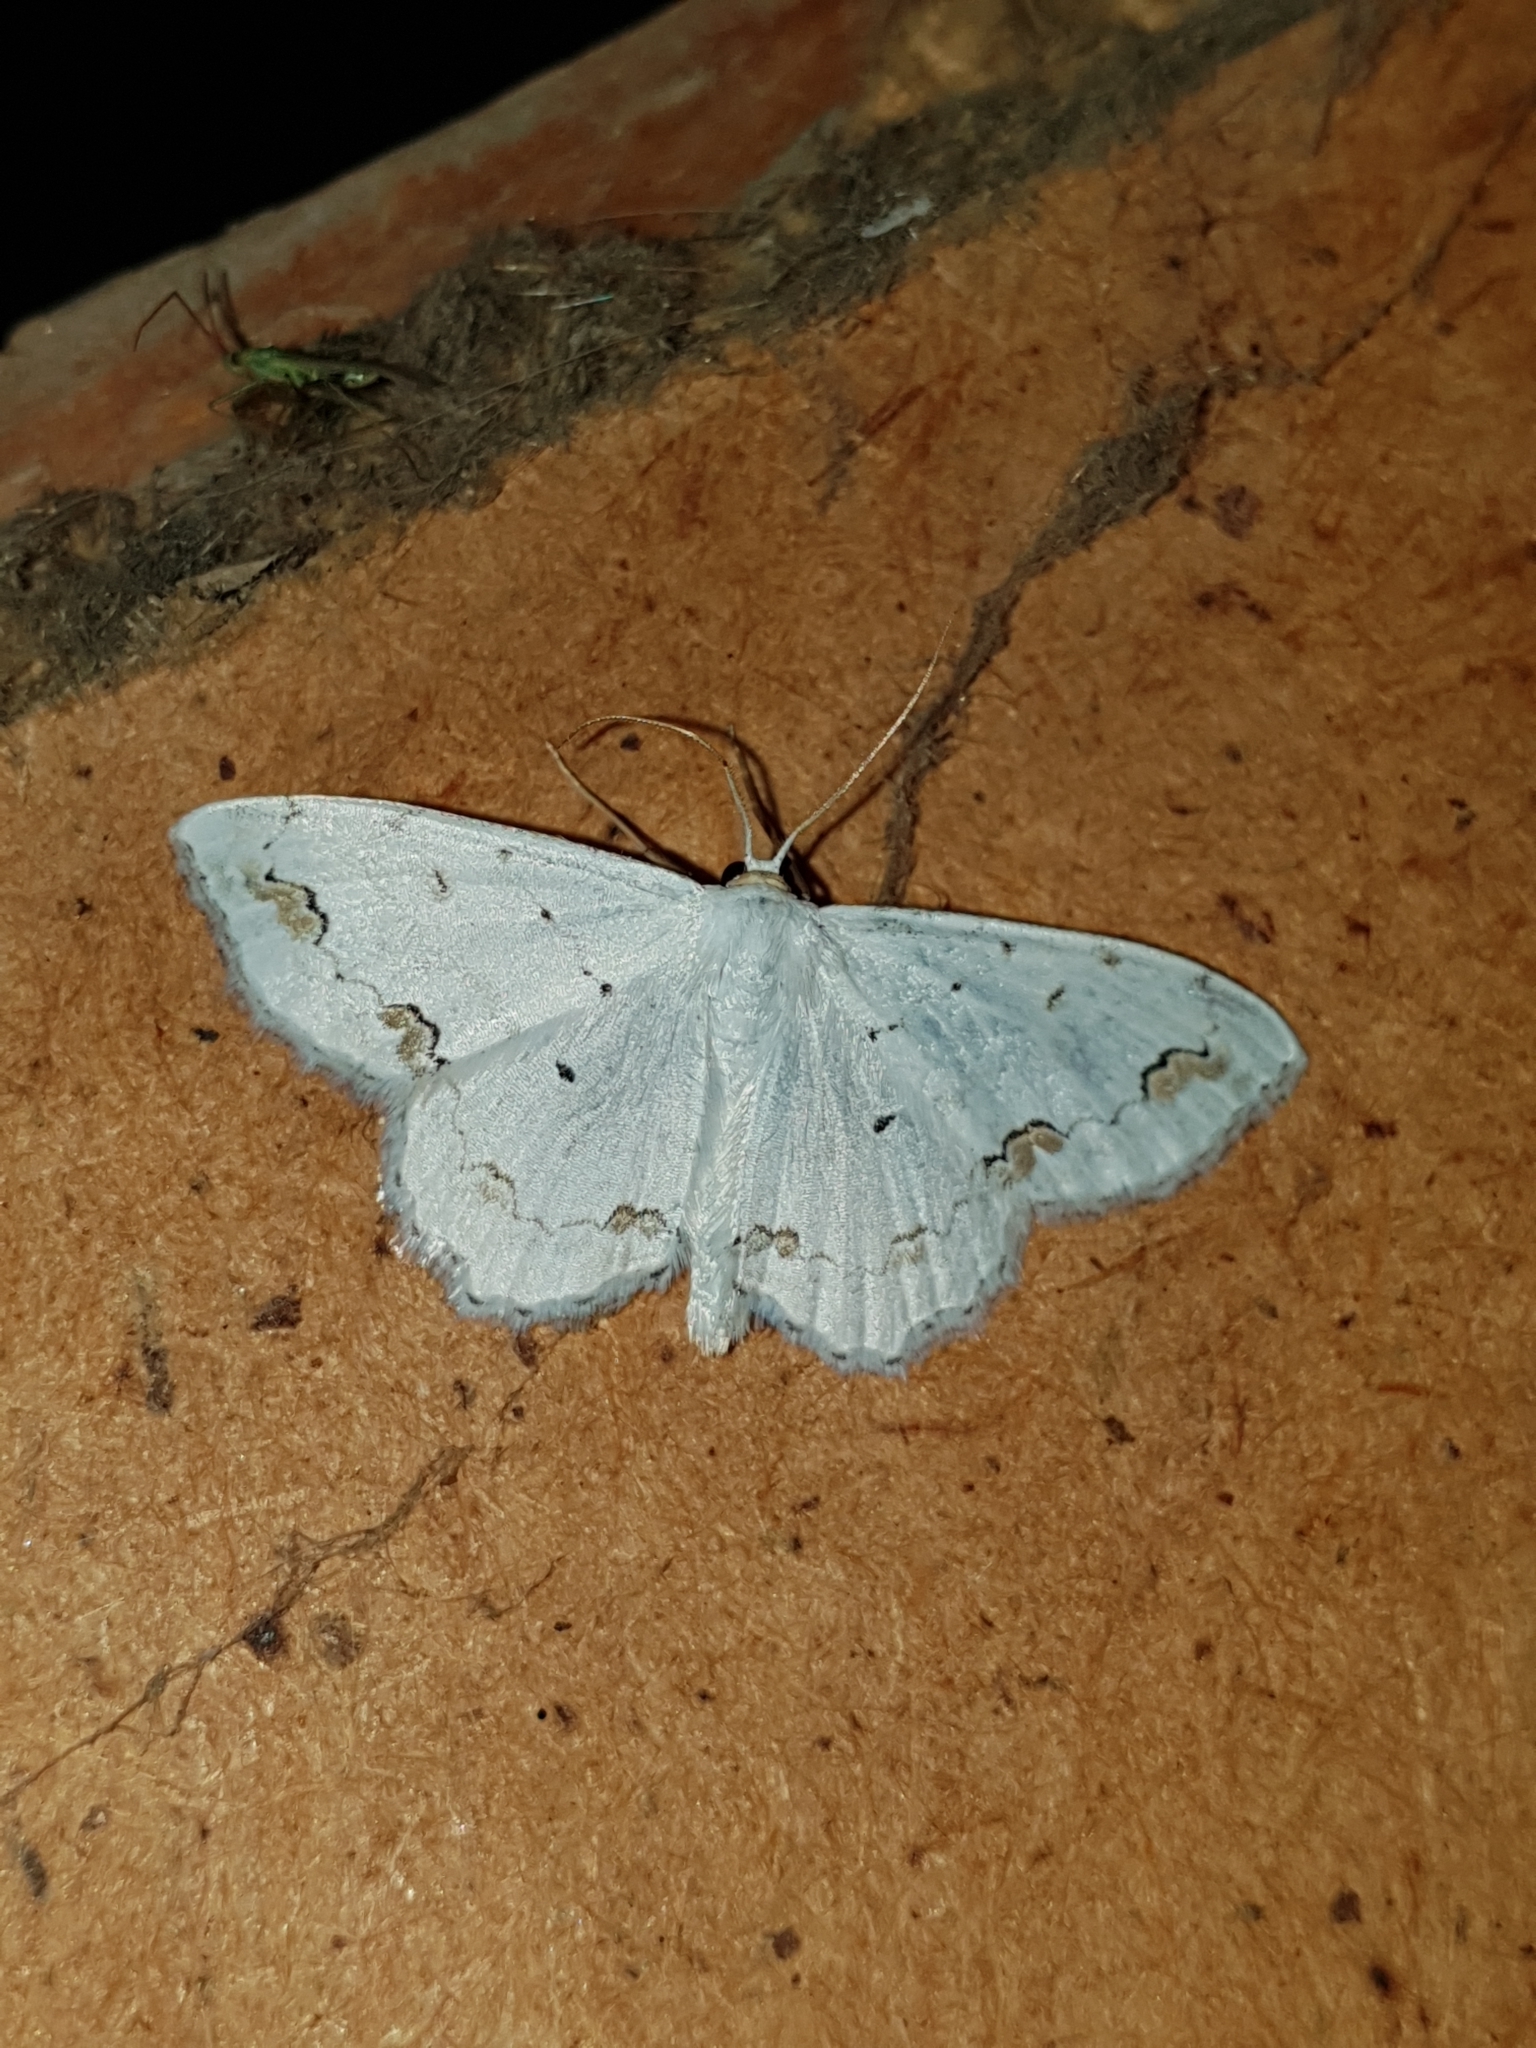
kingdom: Animalia
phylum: Arthropoda
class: Insecta
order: Lepidoptera
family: Geometridae
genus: Scopula
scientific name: Scopula ornata
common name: Lace border
